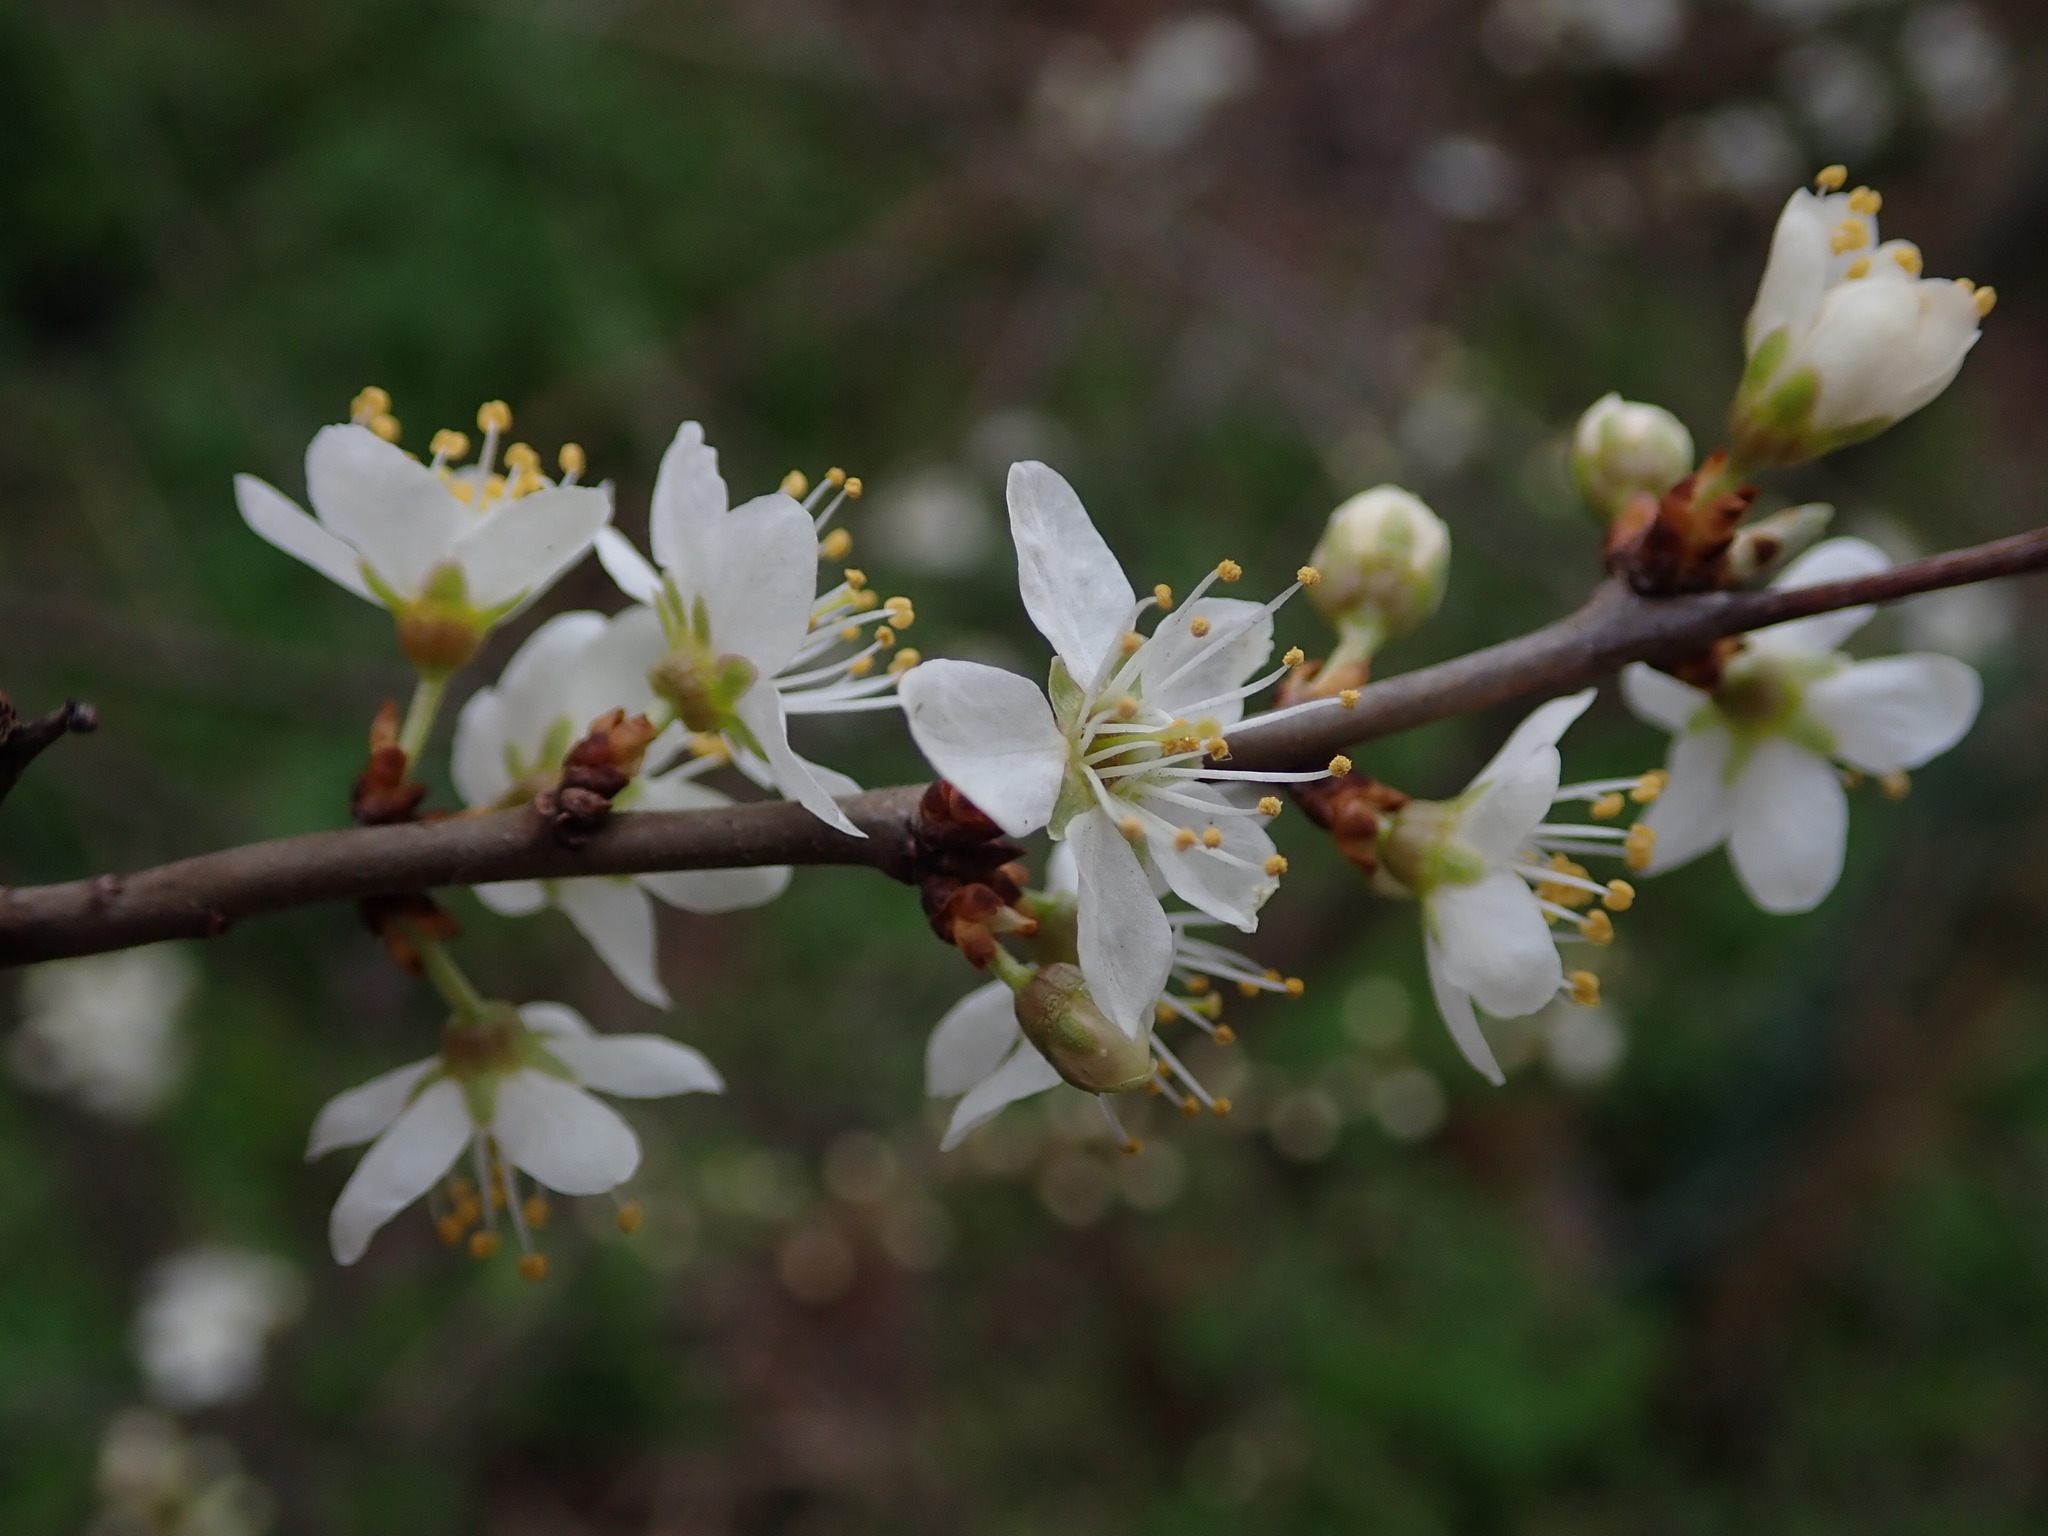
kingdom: Plantae
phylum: Tracheophyta
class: Magnoliopsida
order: Rosales
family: Rosaceae
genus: Prunus
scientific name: Prunus spinosa
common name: Blackthorn
